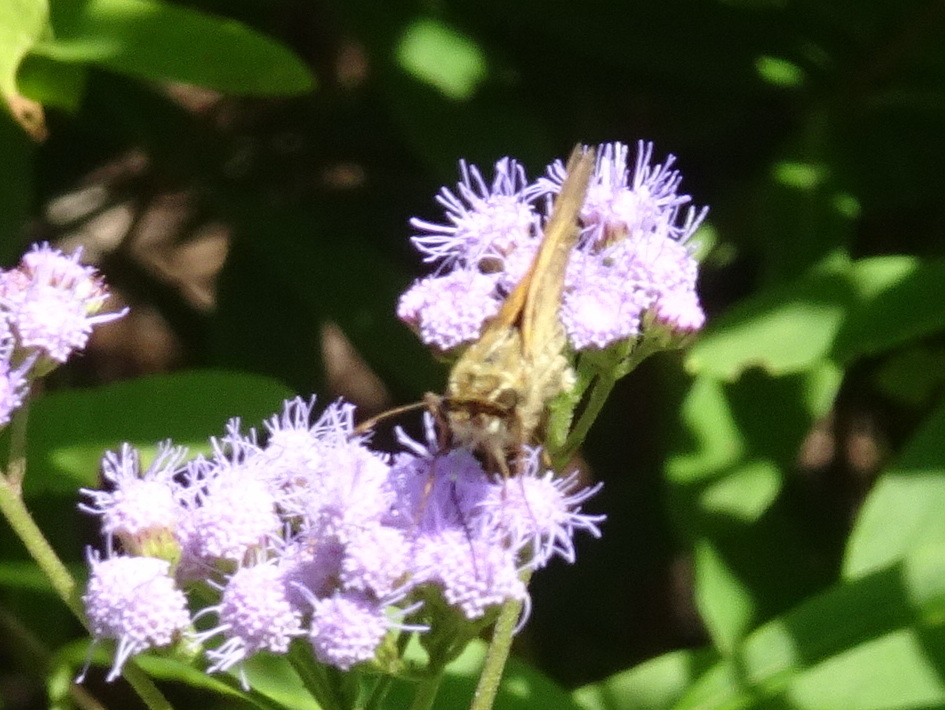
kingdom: Animalia
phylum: Arthropoda
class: Insecta
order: Lepidoptera
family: Hesperiidae
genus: Atalopedes
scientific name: Atalopedes
